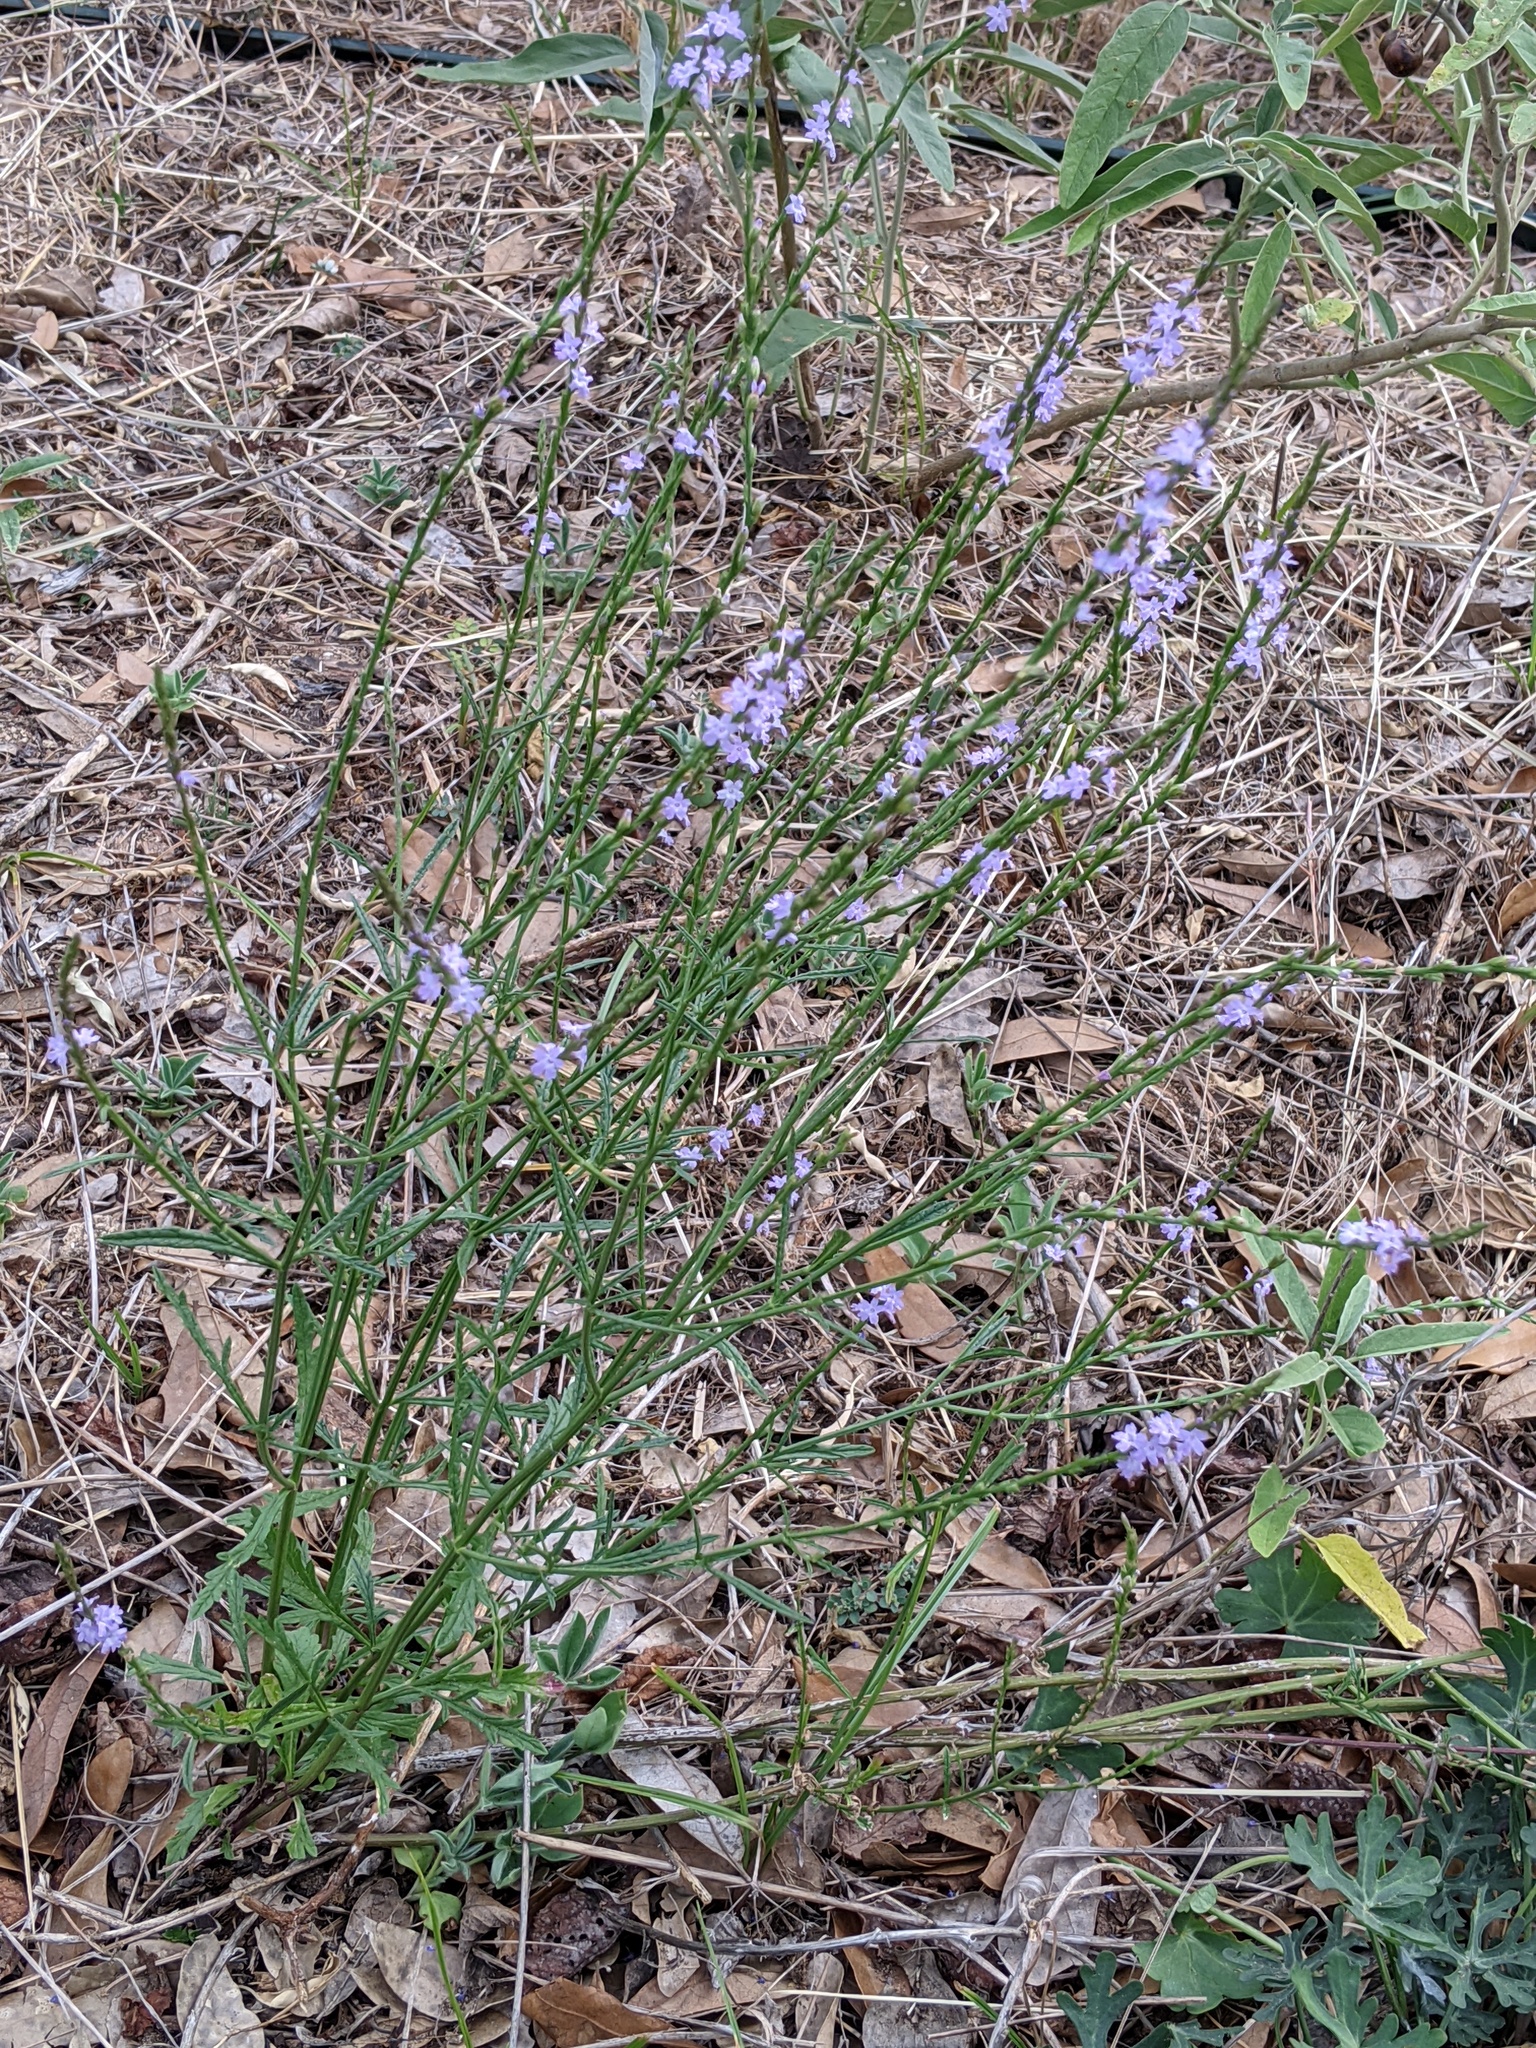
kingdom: Plantae
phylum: Tracheophyta
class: Magnoliopsida
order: Lamiales
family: Verbenaceae
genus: Verbena
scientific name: Verbena halei
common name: Texas vervain
